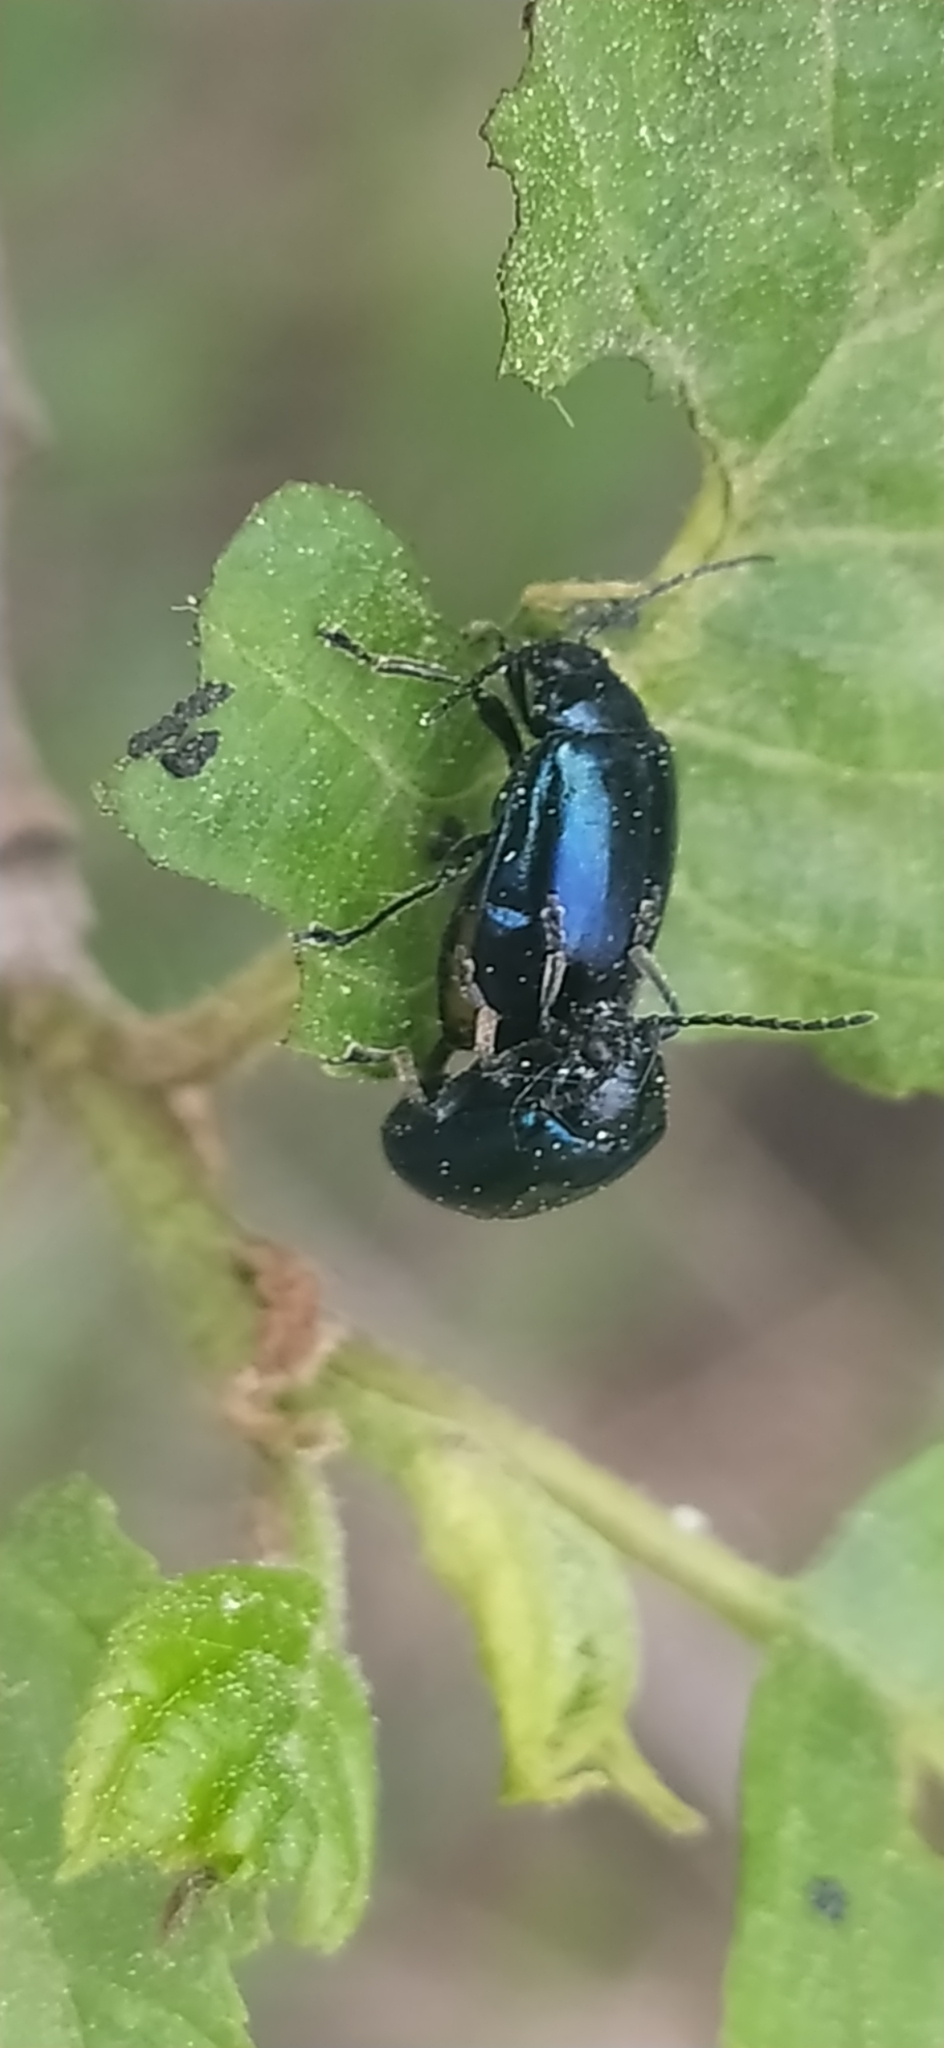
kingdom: Animalia
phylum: Arthropoda
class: Insecta
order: Coleoptera
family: Chrysomelidae
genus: Agelastica
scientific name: Agelastica alni
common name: Alder leaf beetle
